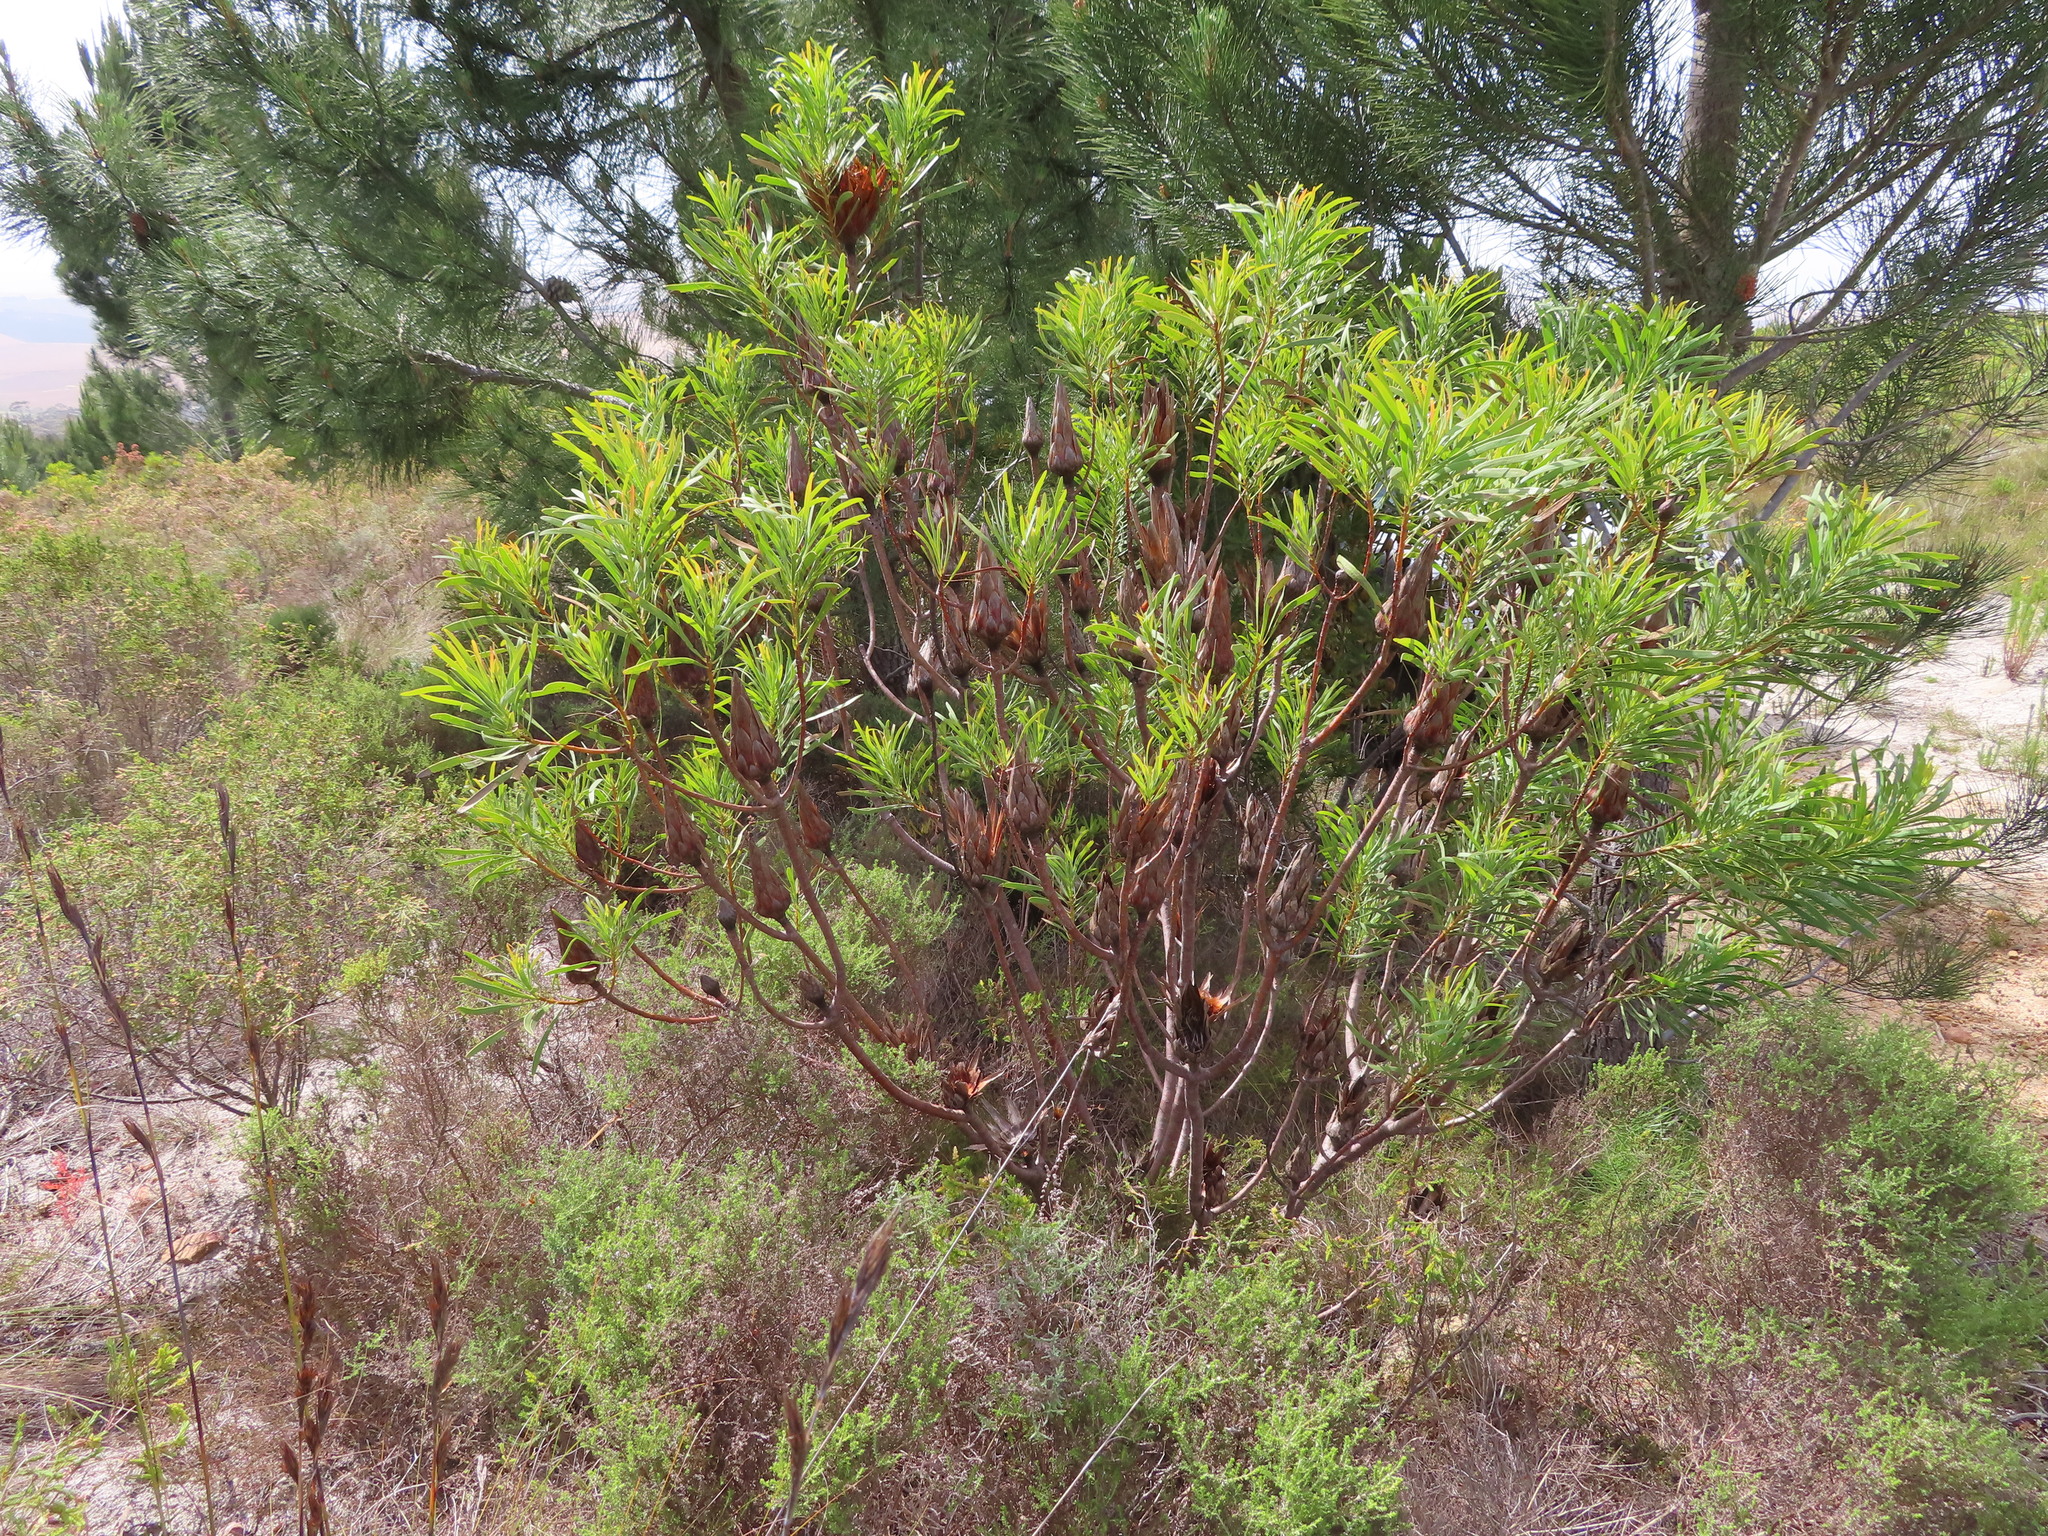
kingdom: Plantae
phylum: Tracheophyta
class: Magnoliopsida
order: Proteales
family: Proteaceae
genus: Protea
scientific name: Protea repens
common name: Sugarbush
